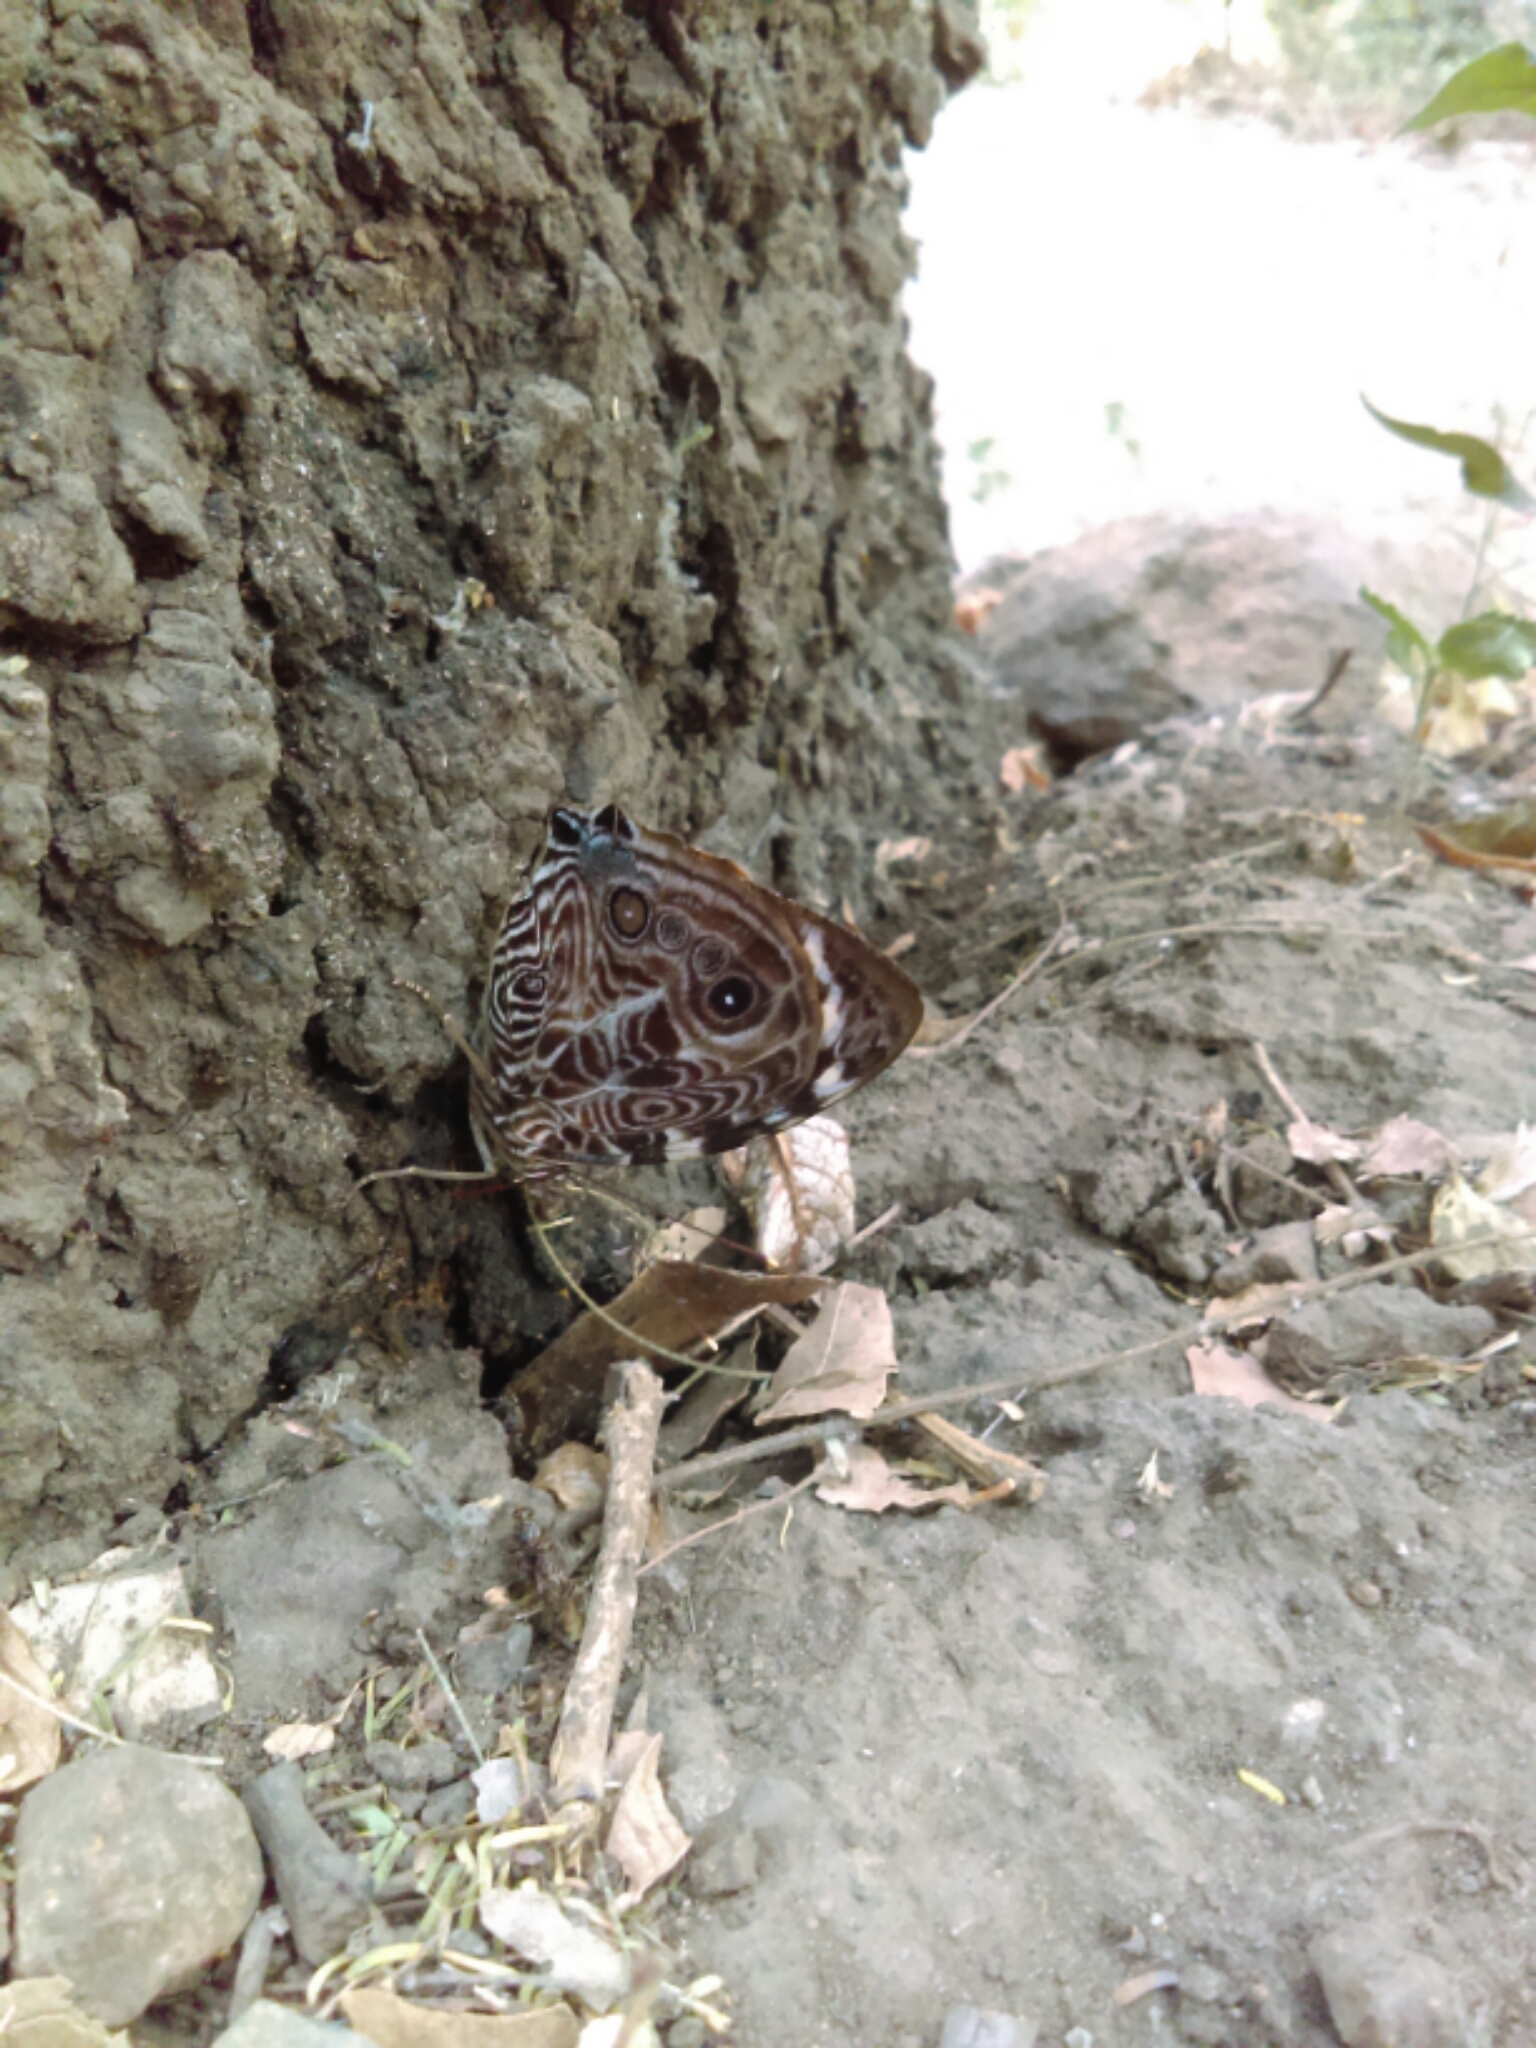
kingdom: Animalia
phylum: Arthropoda
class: Insecta
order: Lepidoptera
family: Nymphalidae
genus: Smyrna
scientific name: Smyrna blomfildia
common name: Blomfild's beauty
